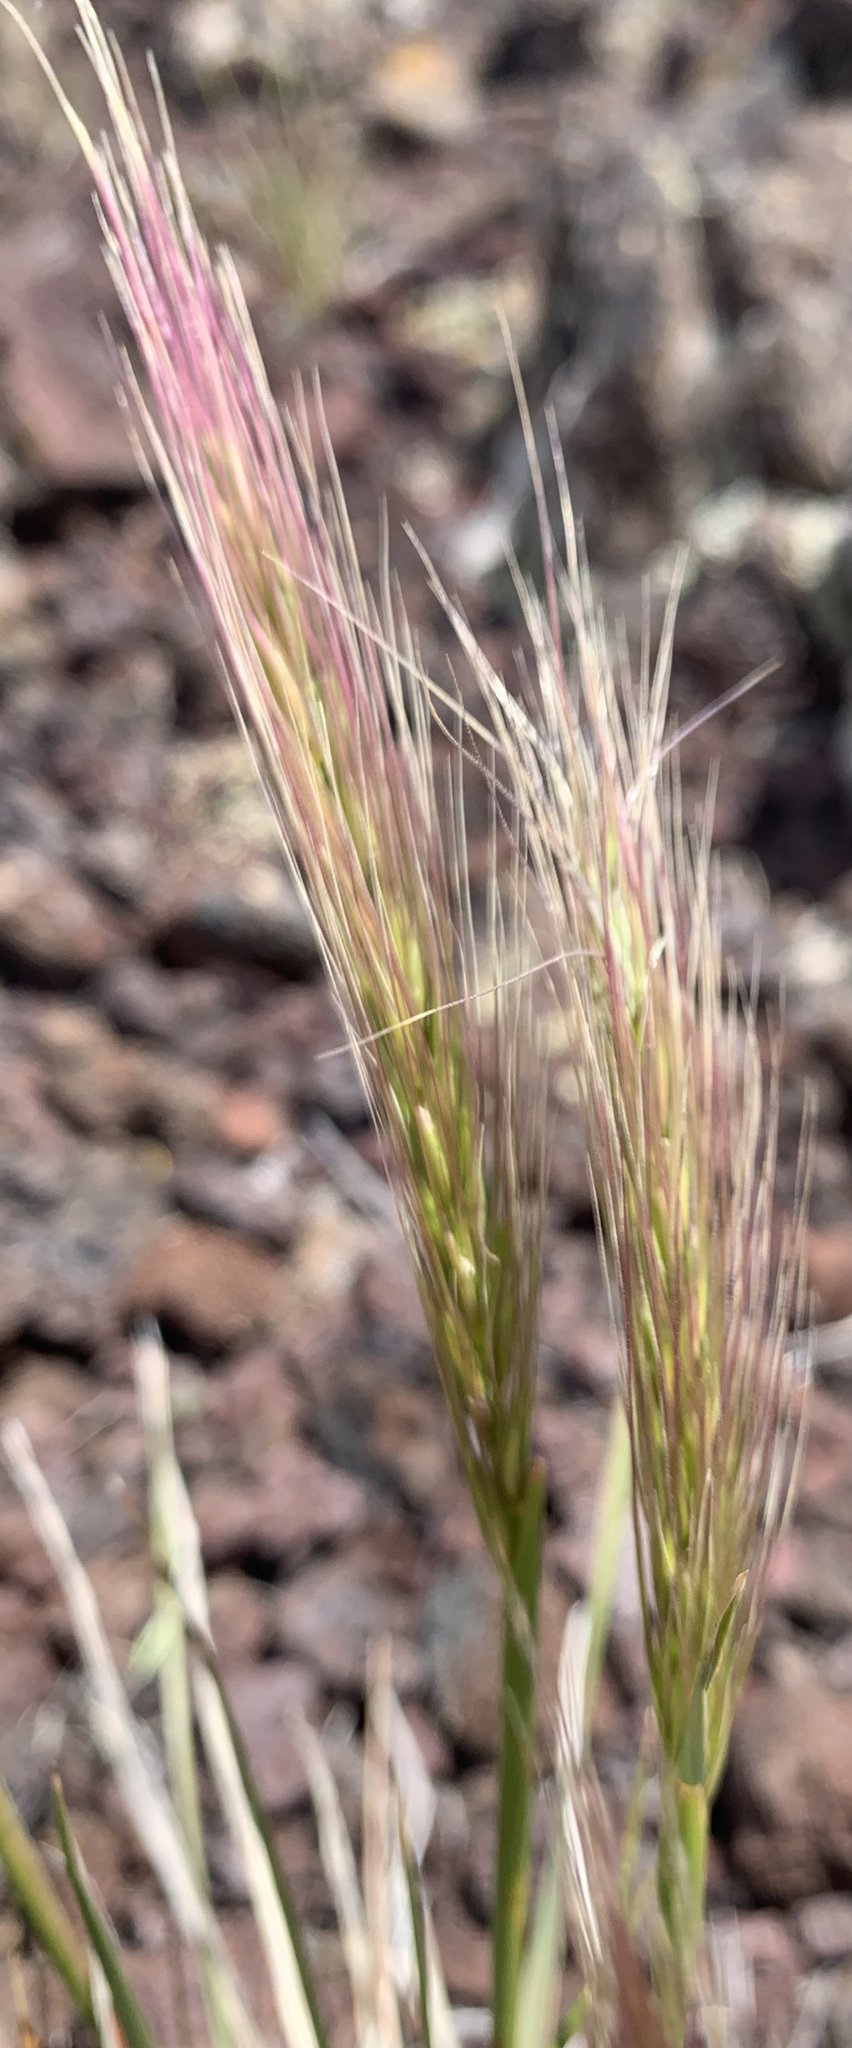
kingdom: Plantae
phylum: Tracheophyta
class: Liliopsida
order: Poales
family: Poaceae
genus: Elymus
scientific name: Elymus elymoides
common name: Bottlebrush squirreltail
